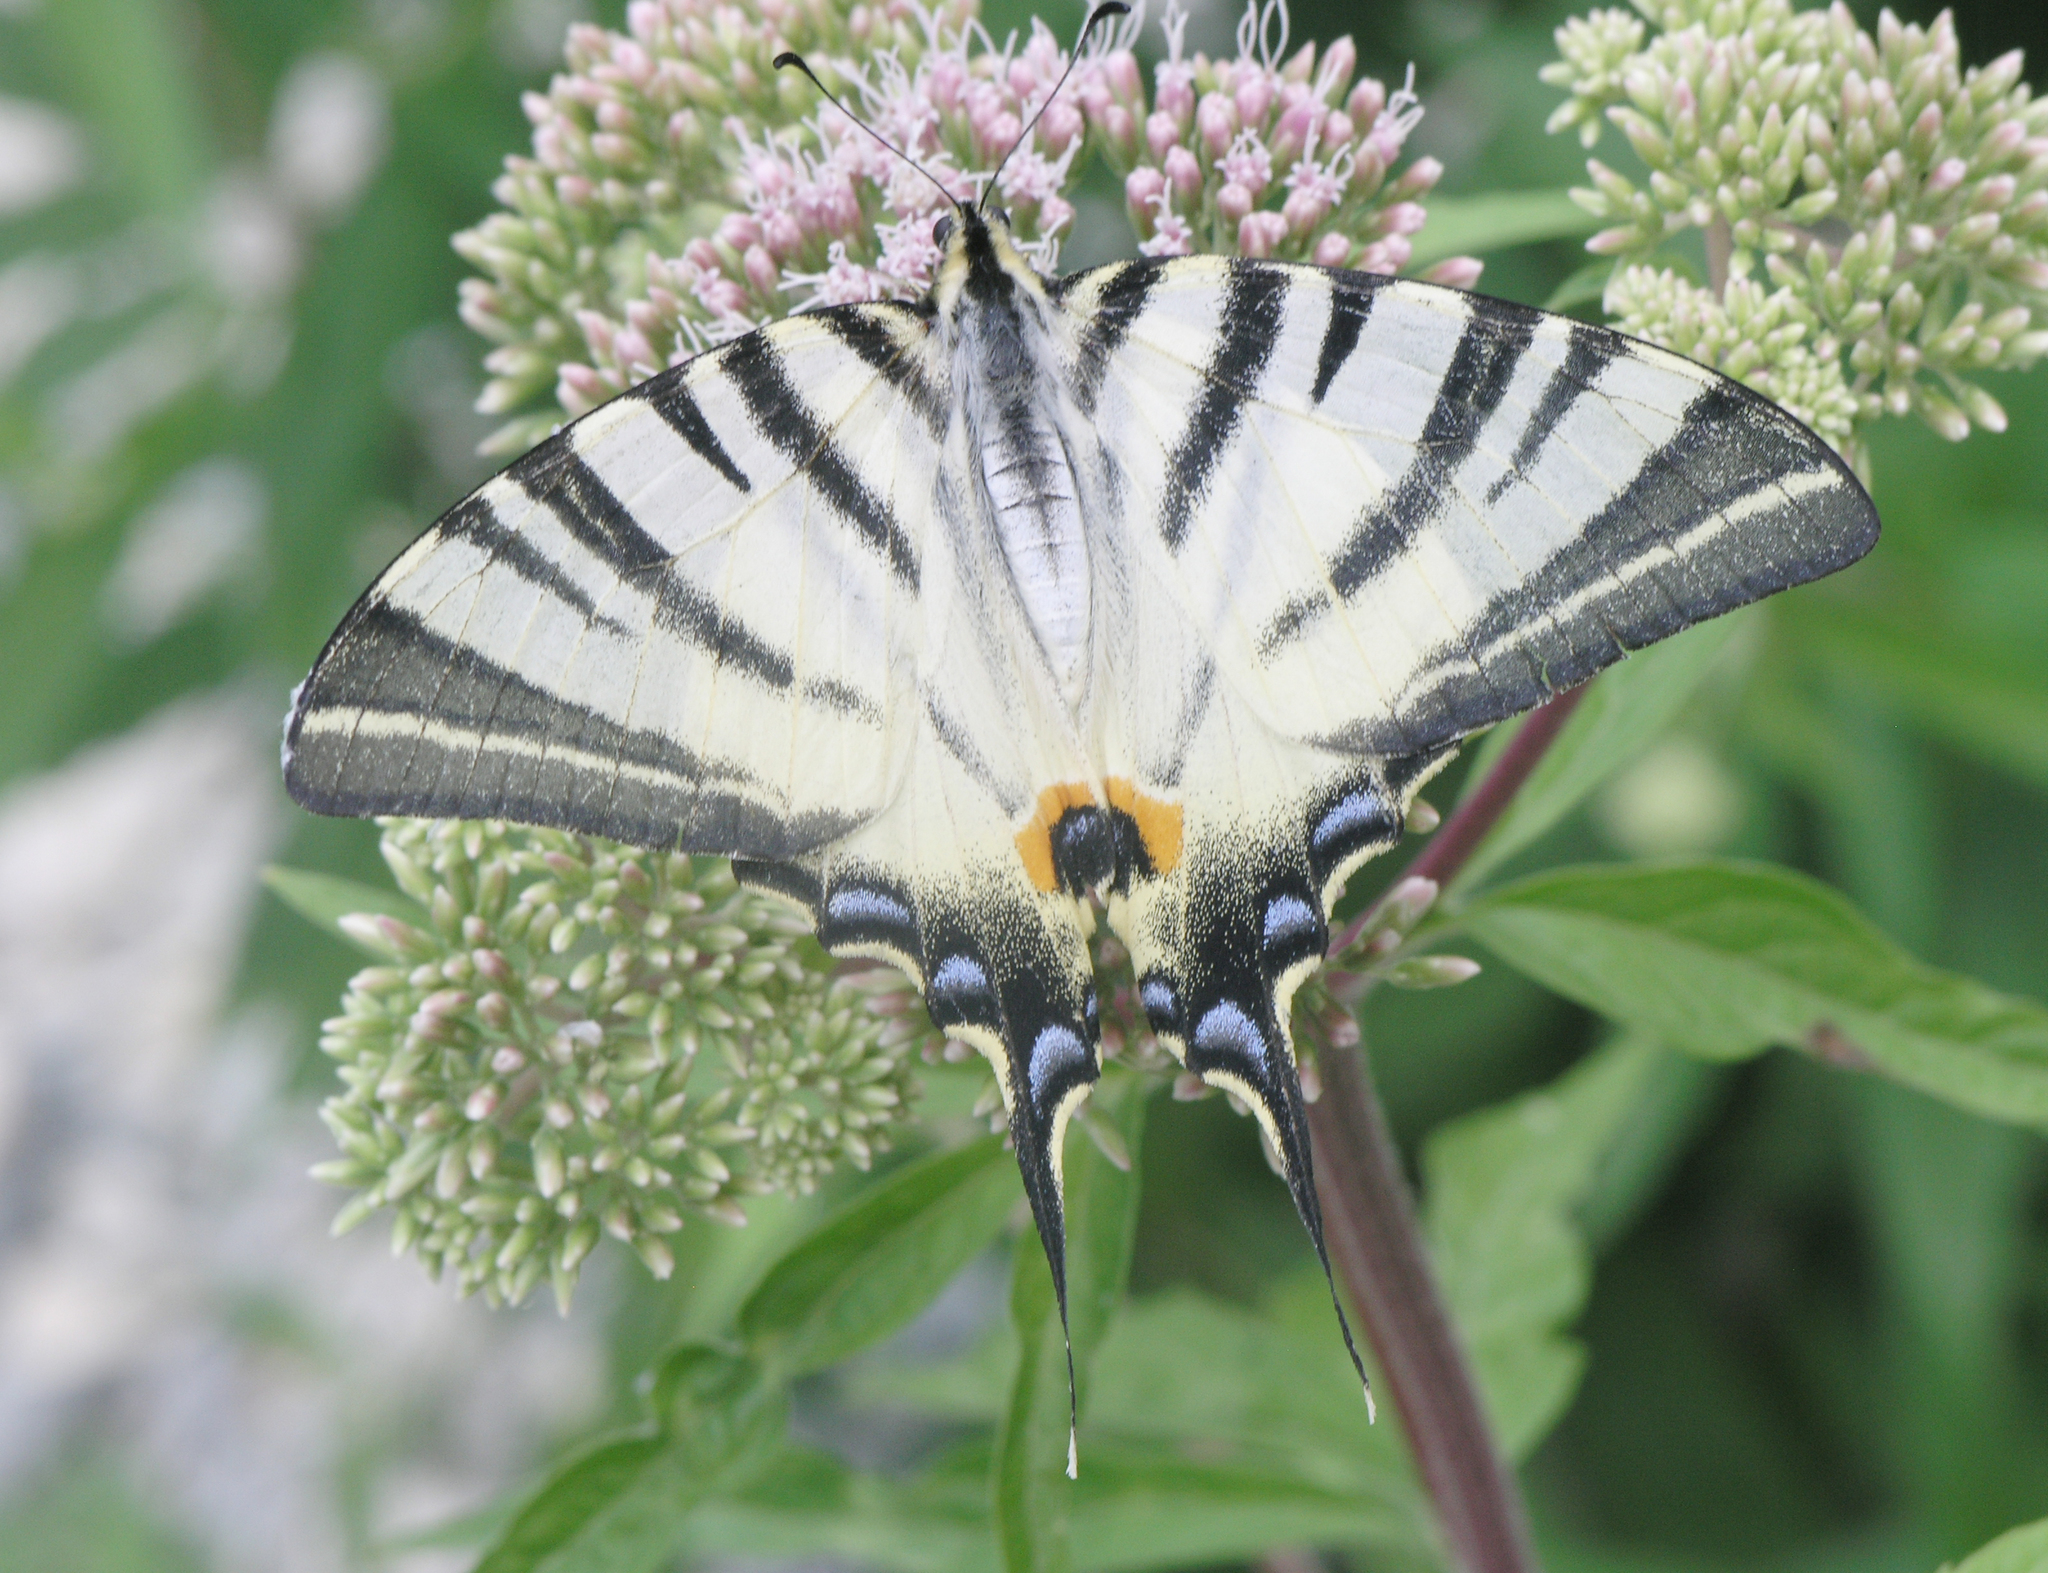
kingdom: Animalia
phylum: Arthropoda
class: Insecta
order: Lepidoptera
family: Papilionidae
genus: Iphiclides
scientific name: Iphiclides podalirius
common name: Scarce swallowtail
